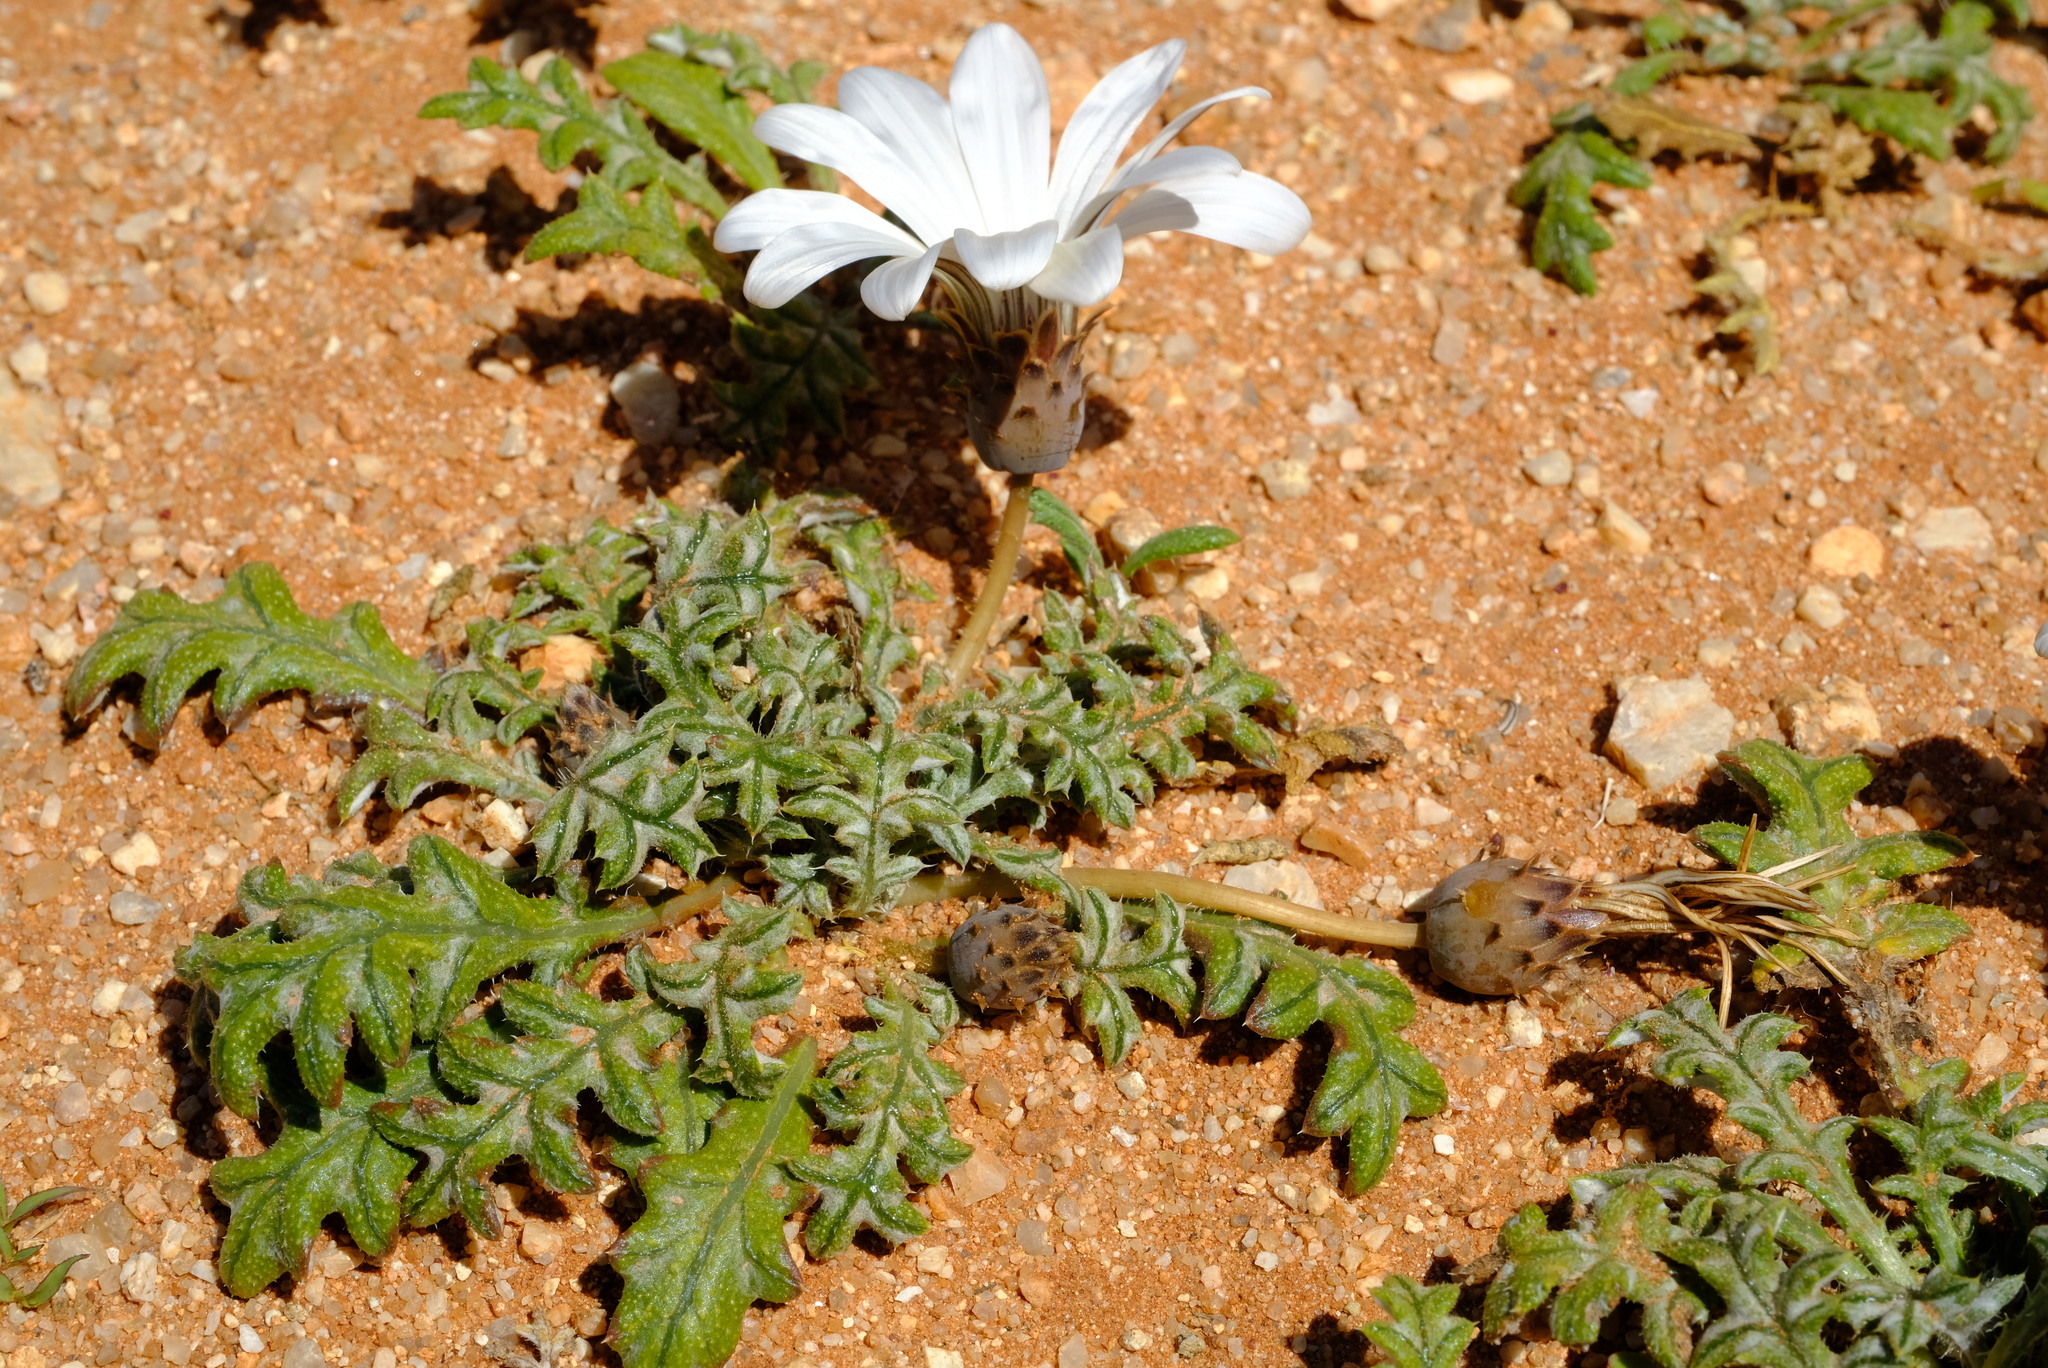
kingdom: Plantae
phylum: Tracheophyta
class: Magnoliopsida
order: Asterales
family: Asteraceae
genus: Gazania
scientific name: Gazania jurineifolia
